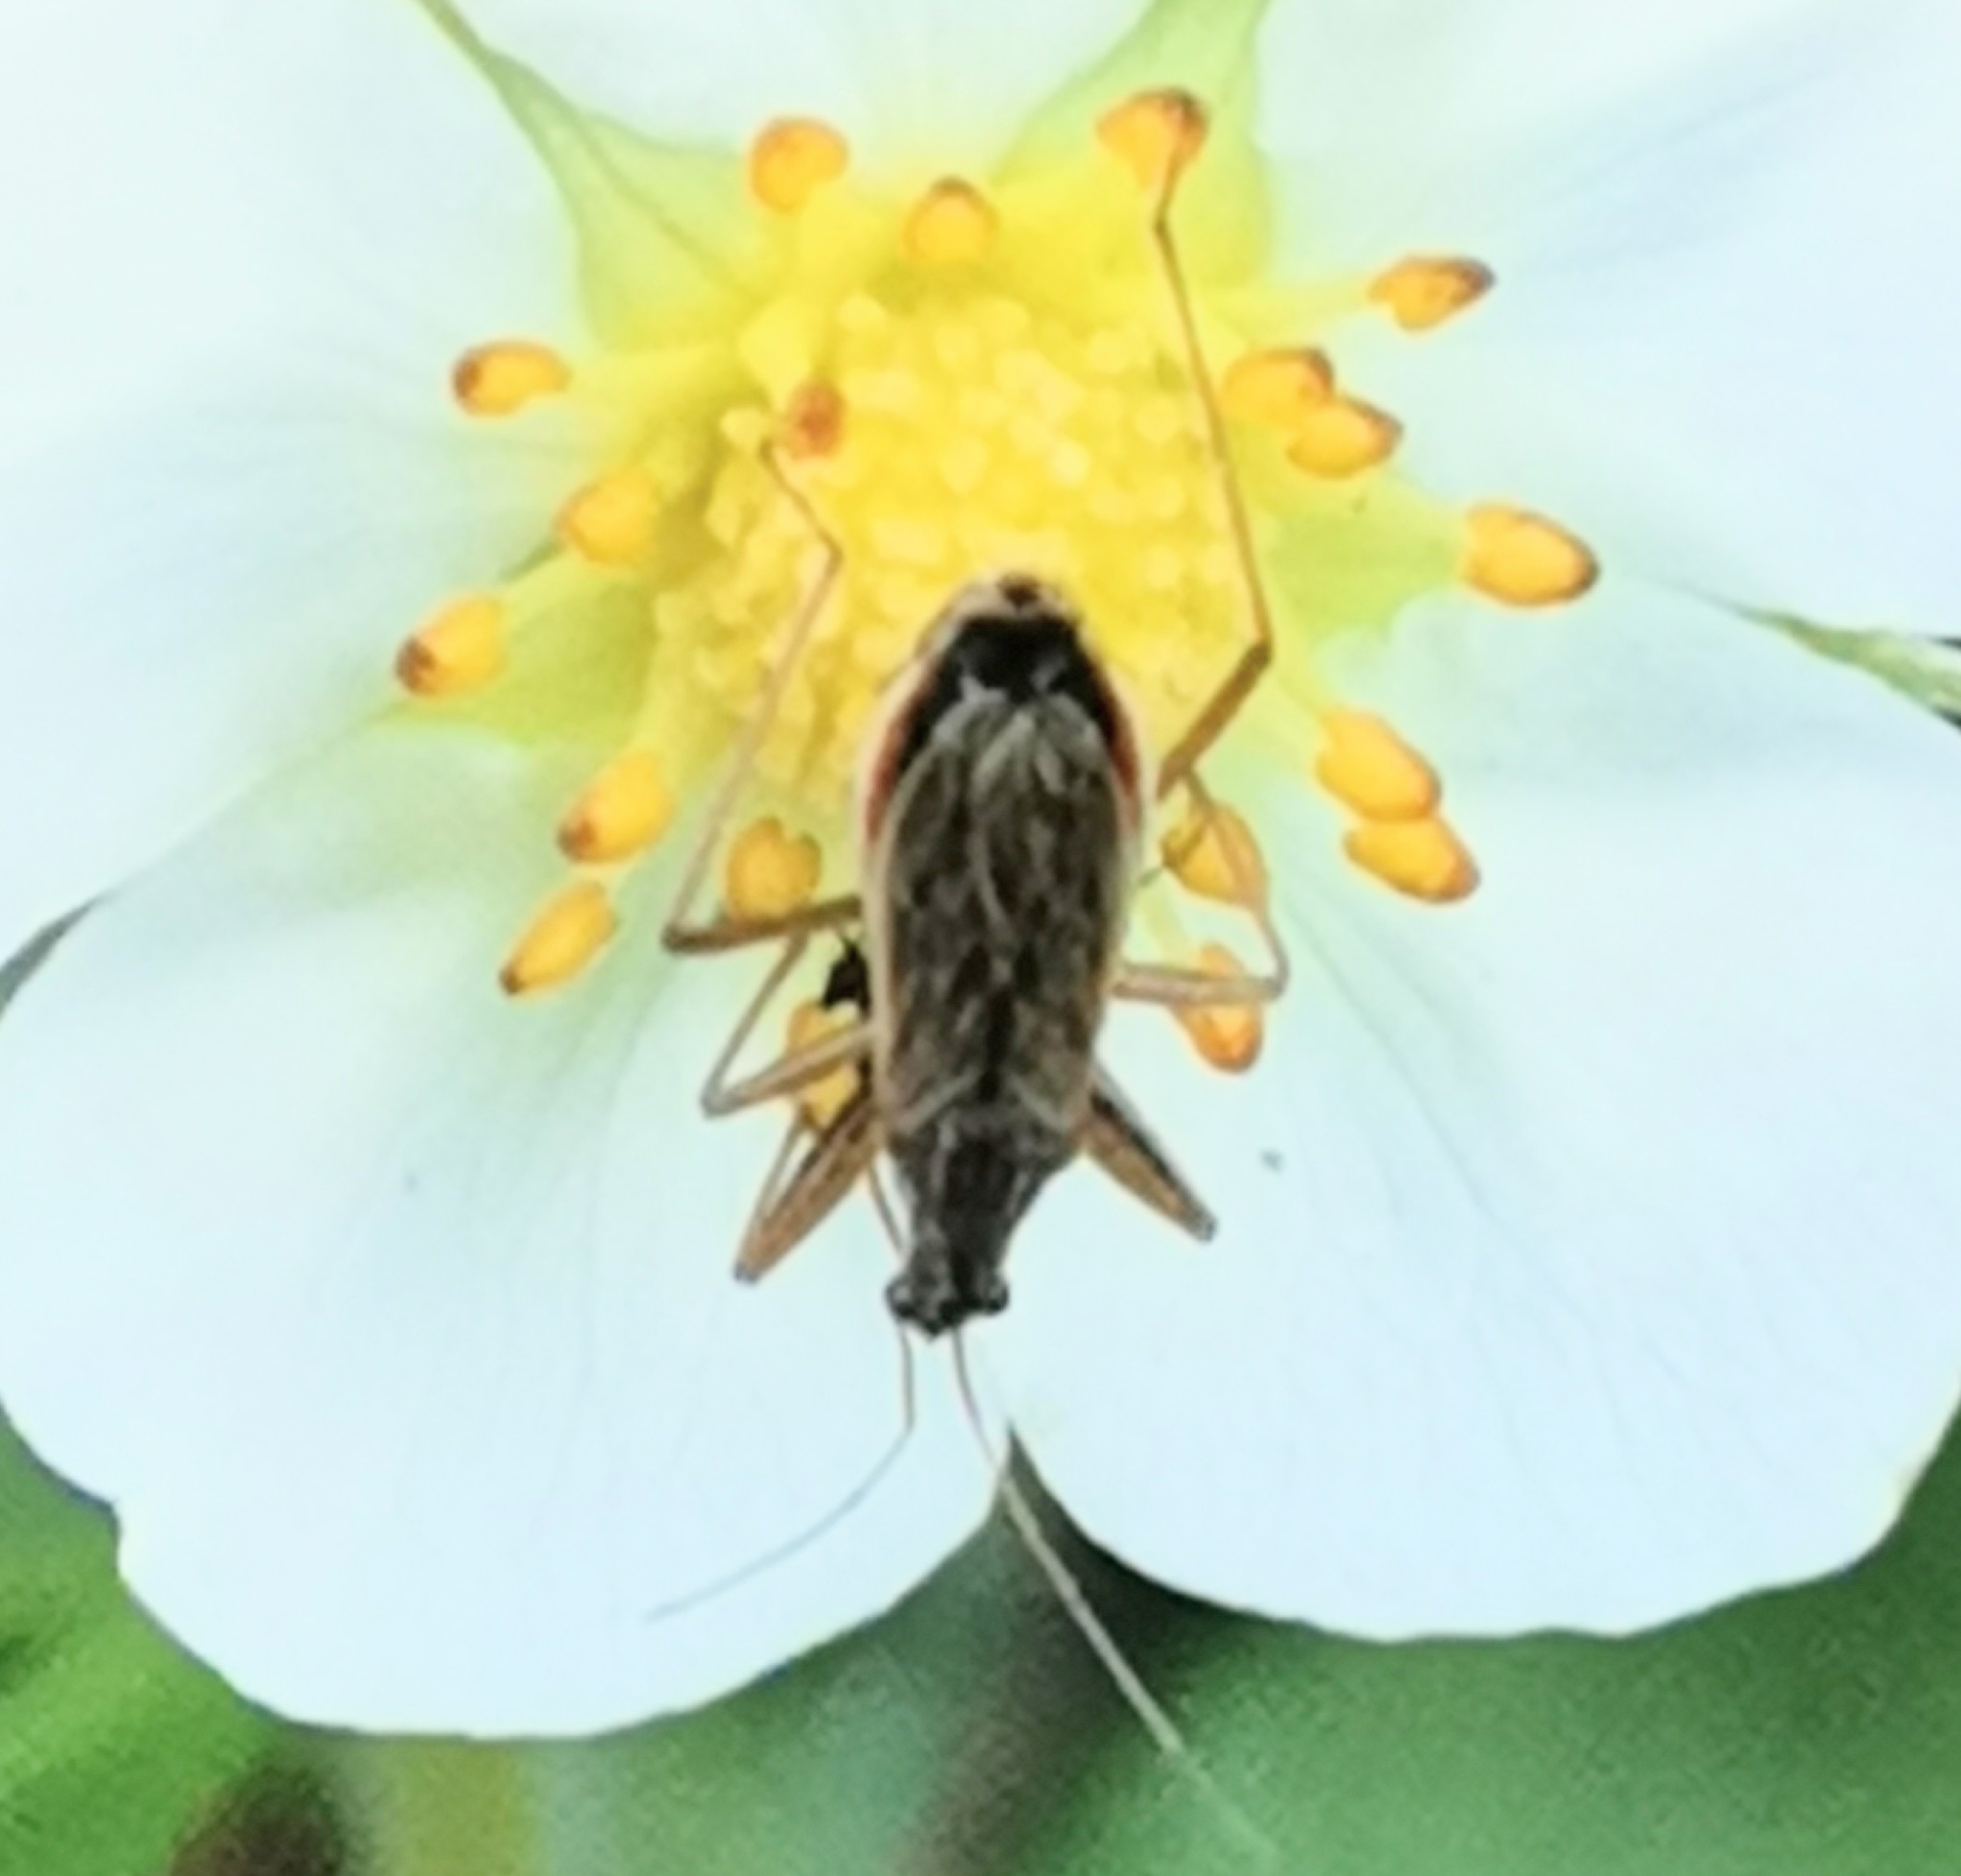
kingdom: Animalia
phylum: Arthropoda
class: Insecta
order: Hemiptera
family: Nabidae
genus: Nabis
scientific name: Nabis brevis
